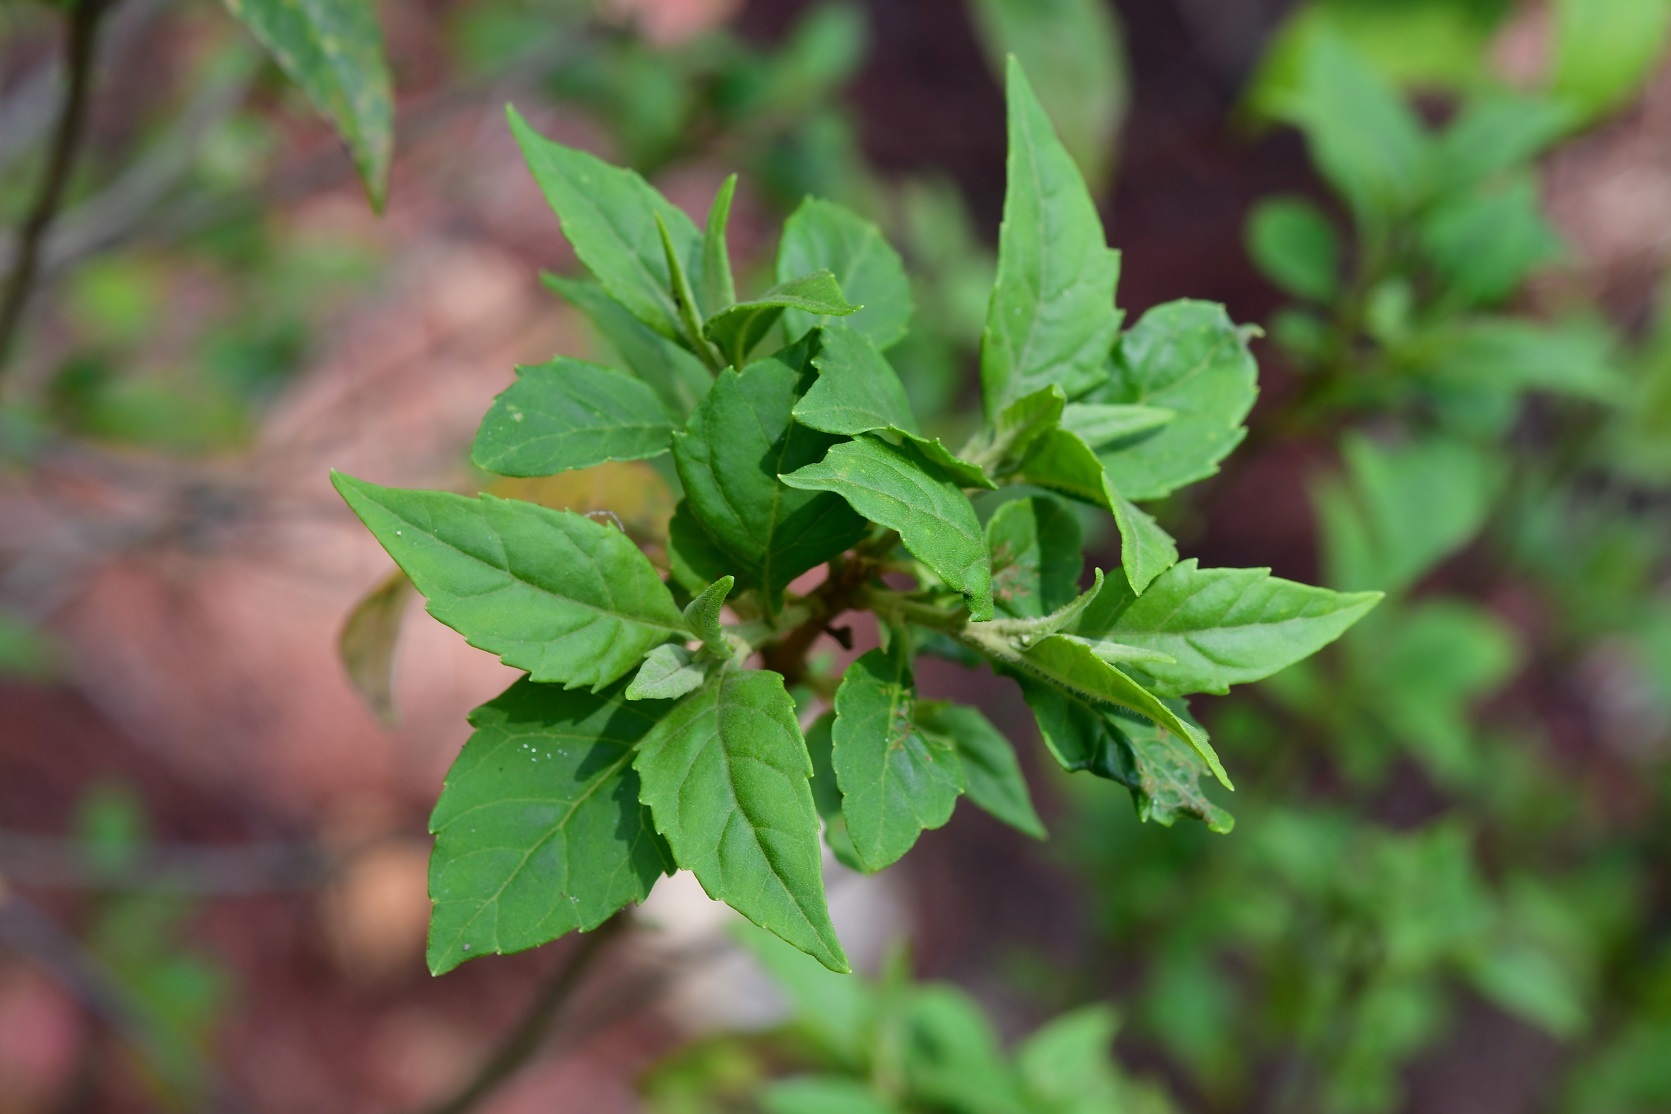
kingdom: Plantae
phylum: Tracheophyta
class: Magnoliopsida
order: Asterales
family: Asteraceae
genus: Ageratina
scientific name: Ageratina ligustrina
